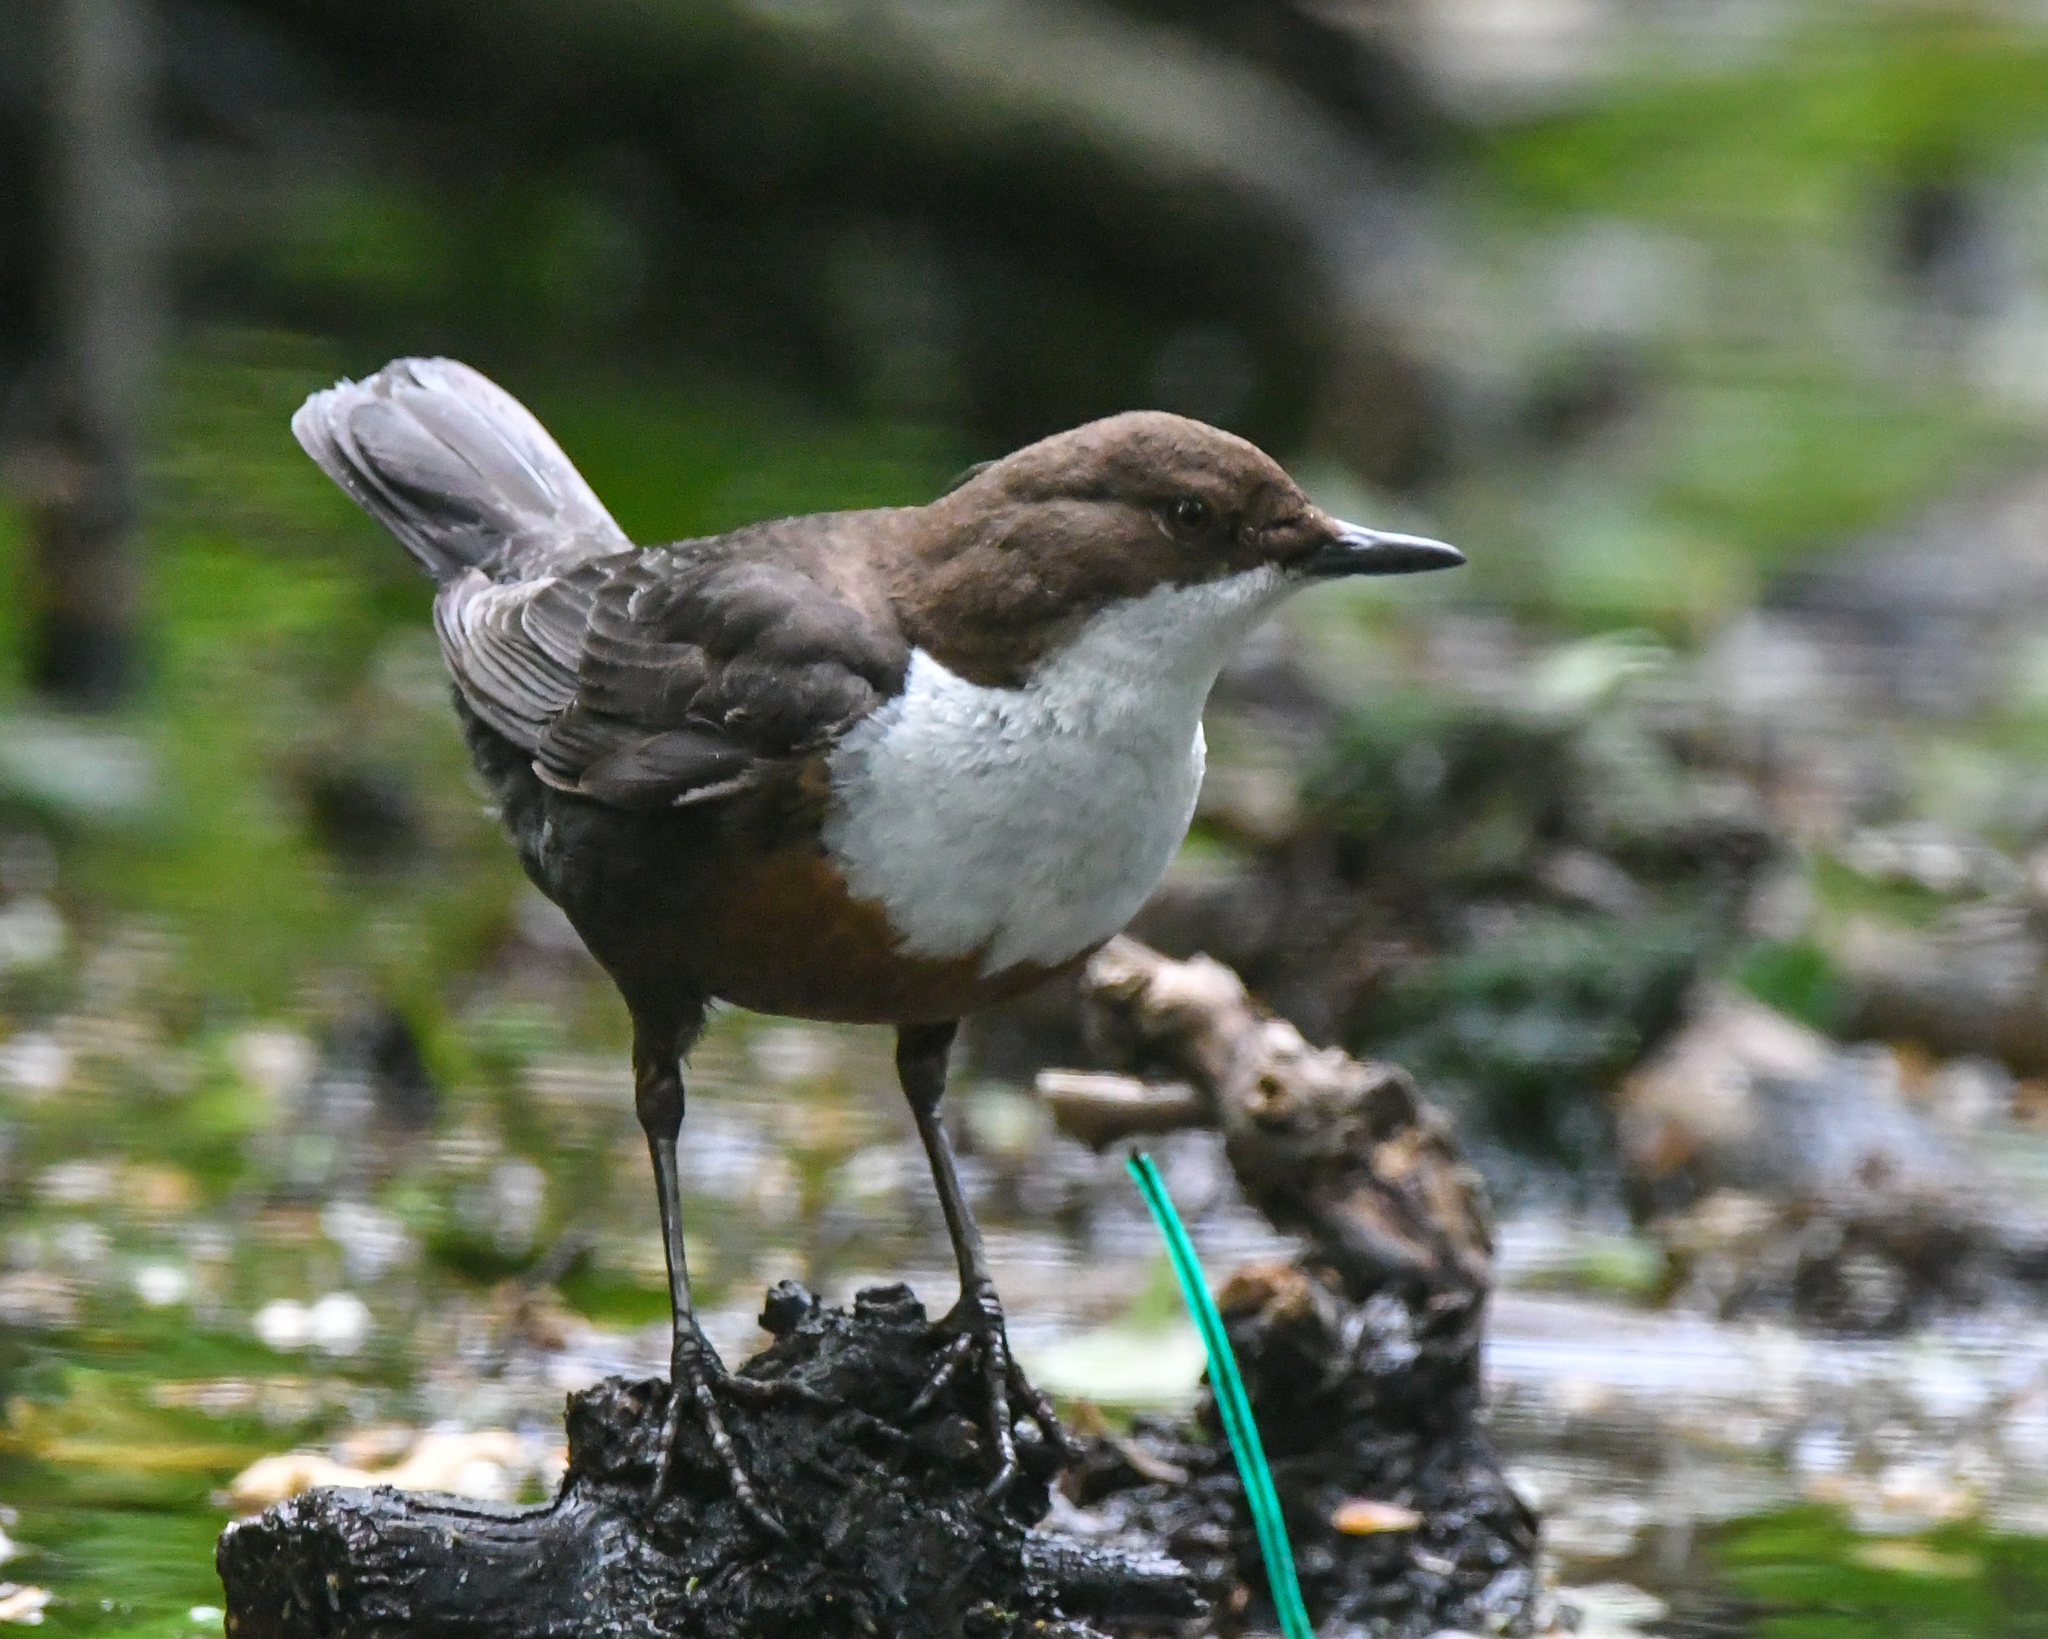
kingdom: Animalia
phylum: Chordata
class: Aves
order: Passeriformes
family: Cinclidae
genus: Cinclus
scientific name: Cinclus cinclus
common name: White-throated dipper
